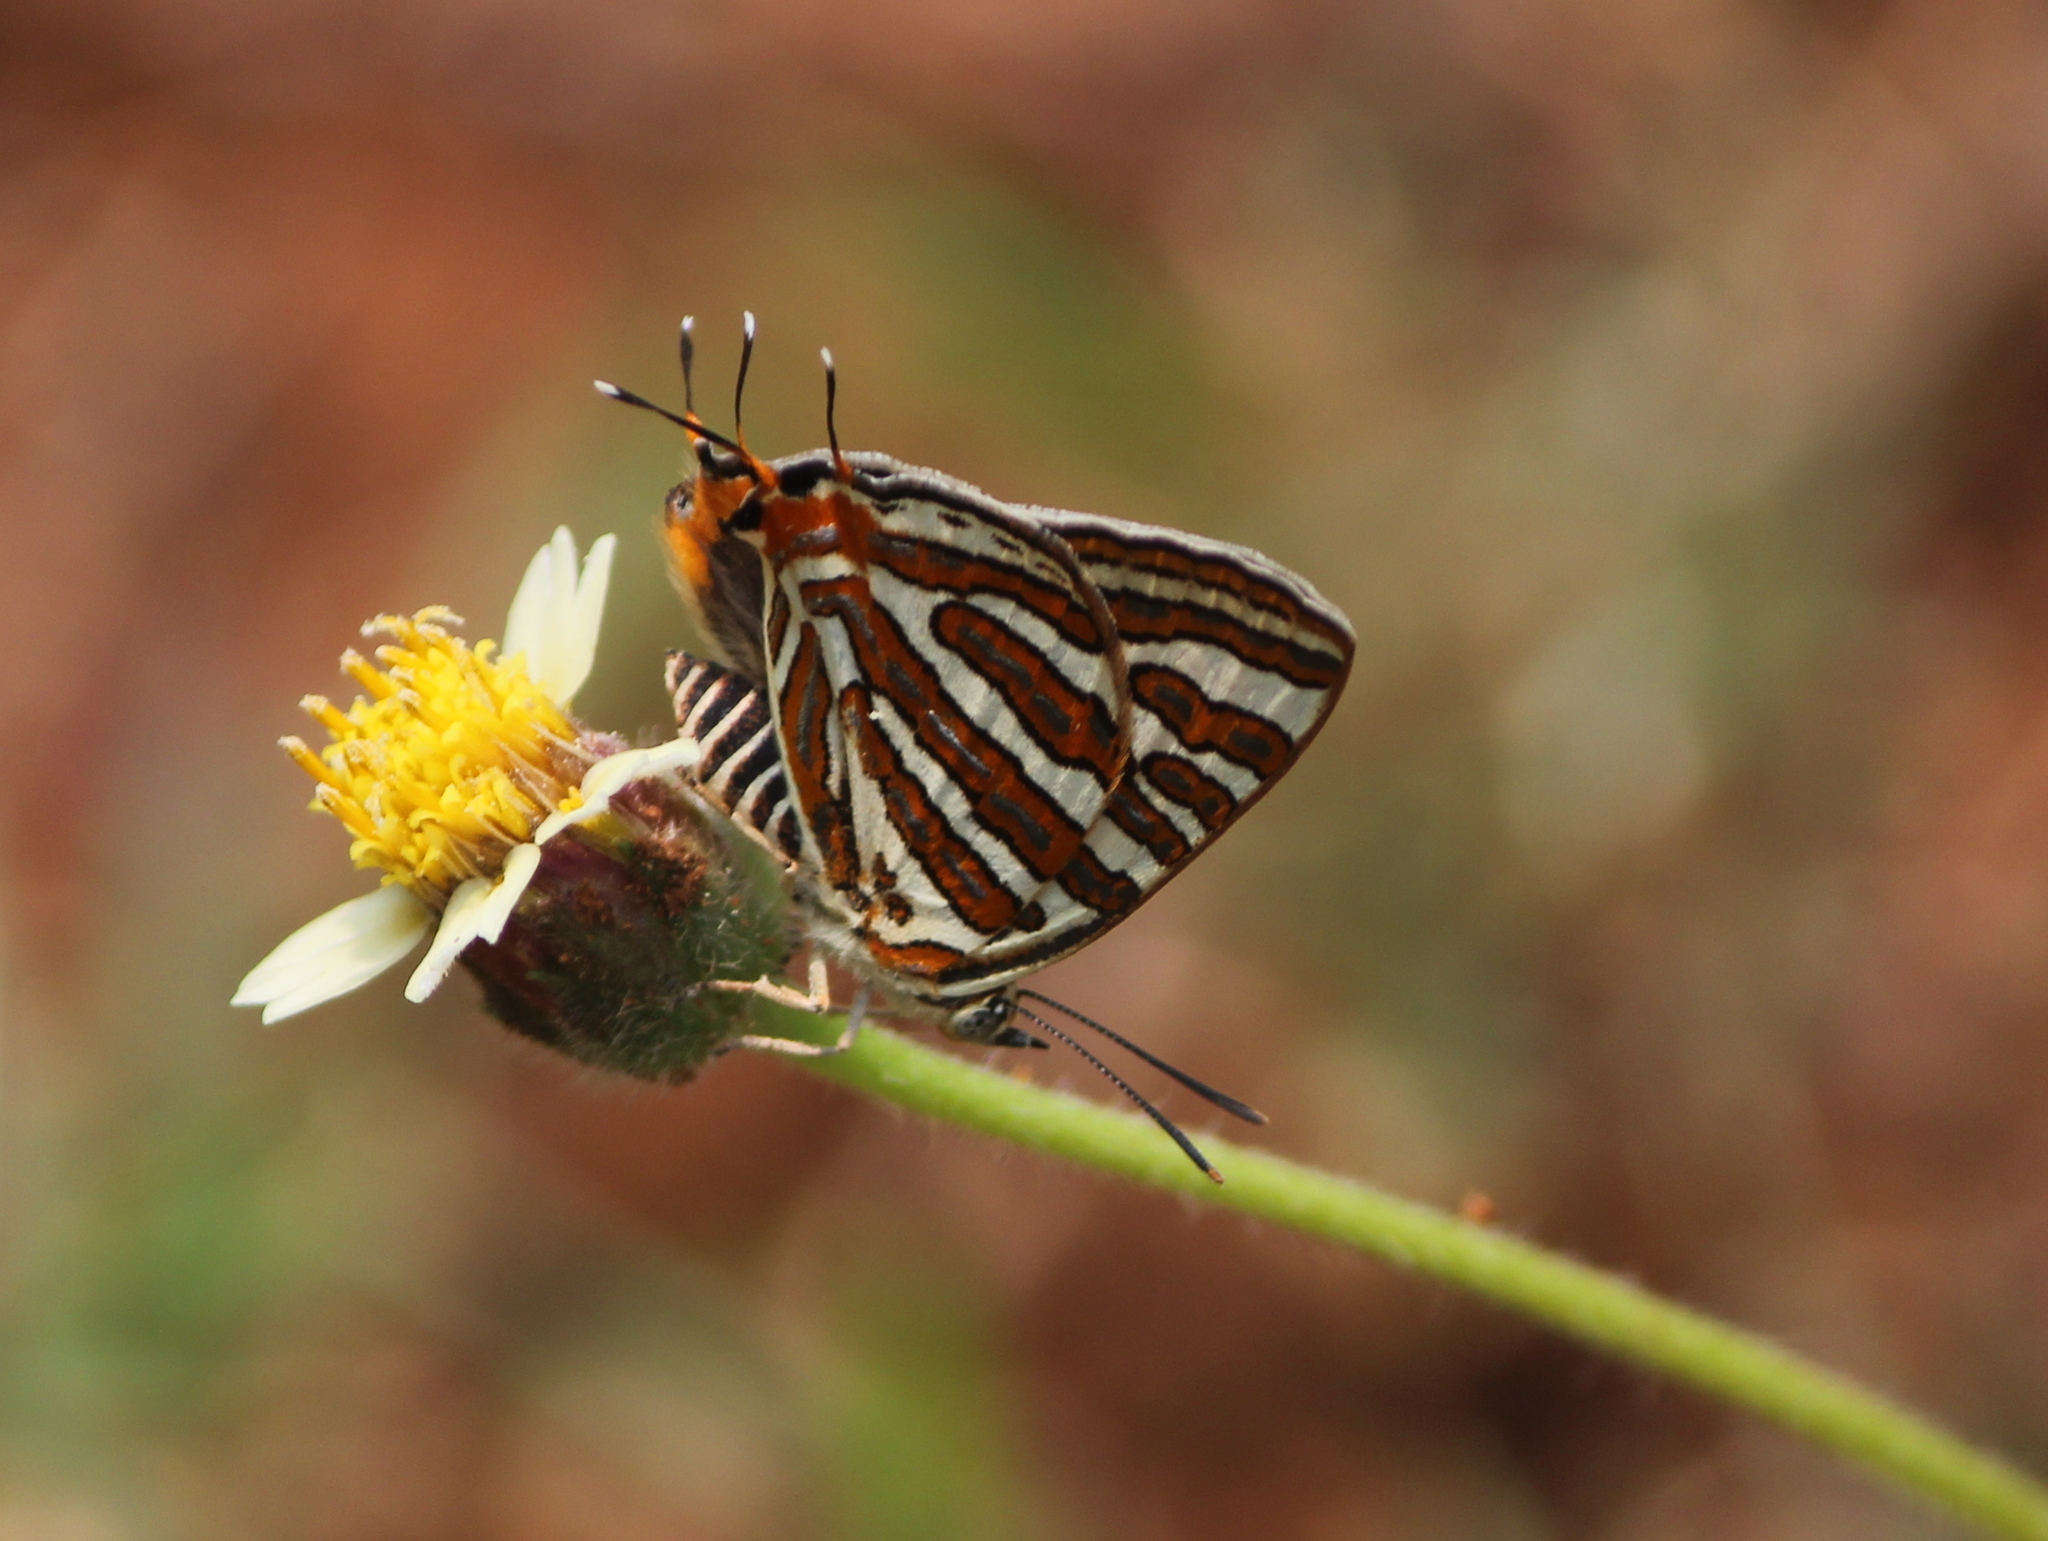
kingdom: Animalia
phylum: Arthropoda
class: Insecta
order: Lepidoptera
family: Lycaenidae
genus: Cigaritis
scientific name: Cigaritis vulcanus
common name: Common silverline
